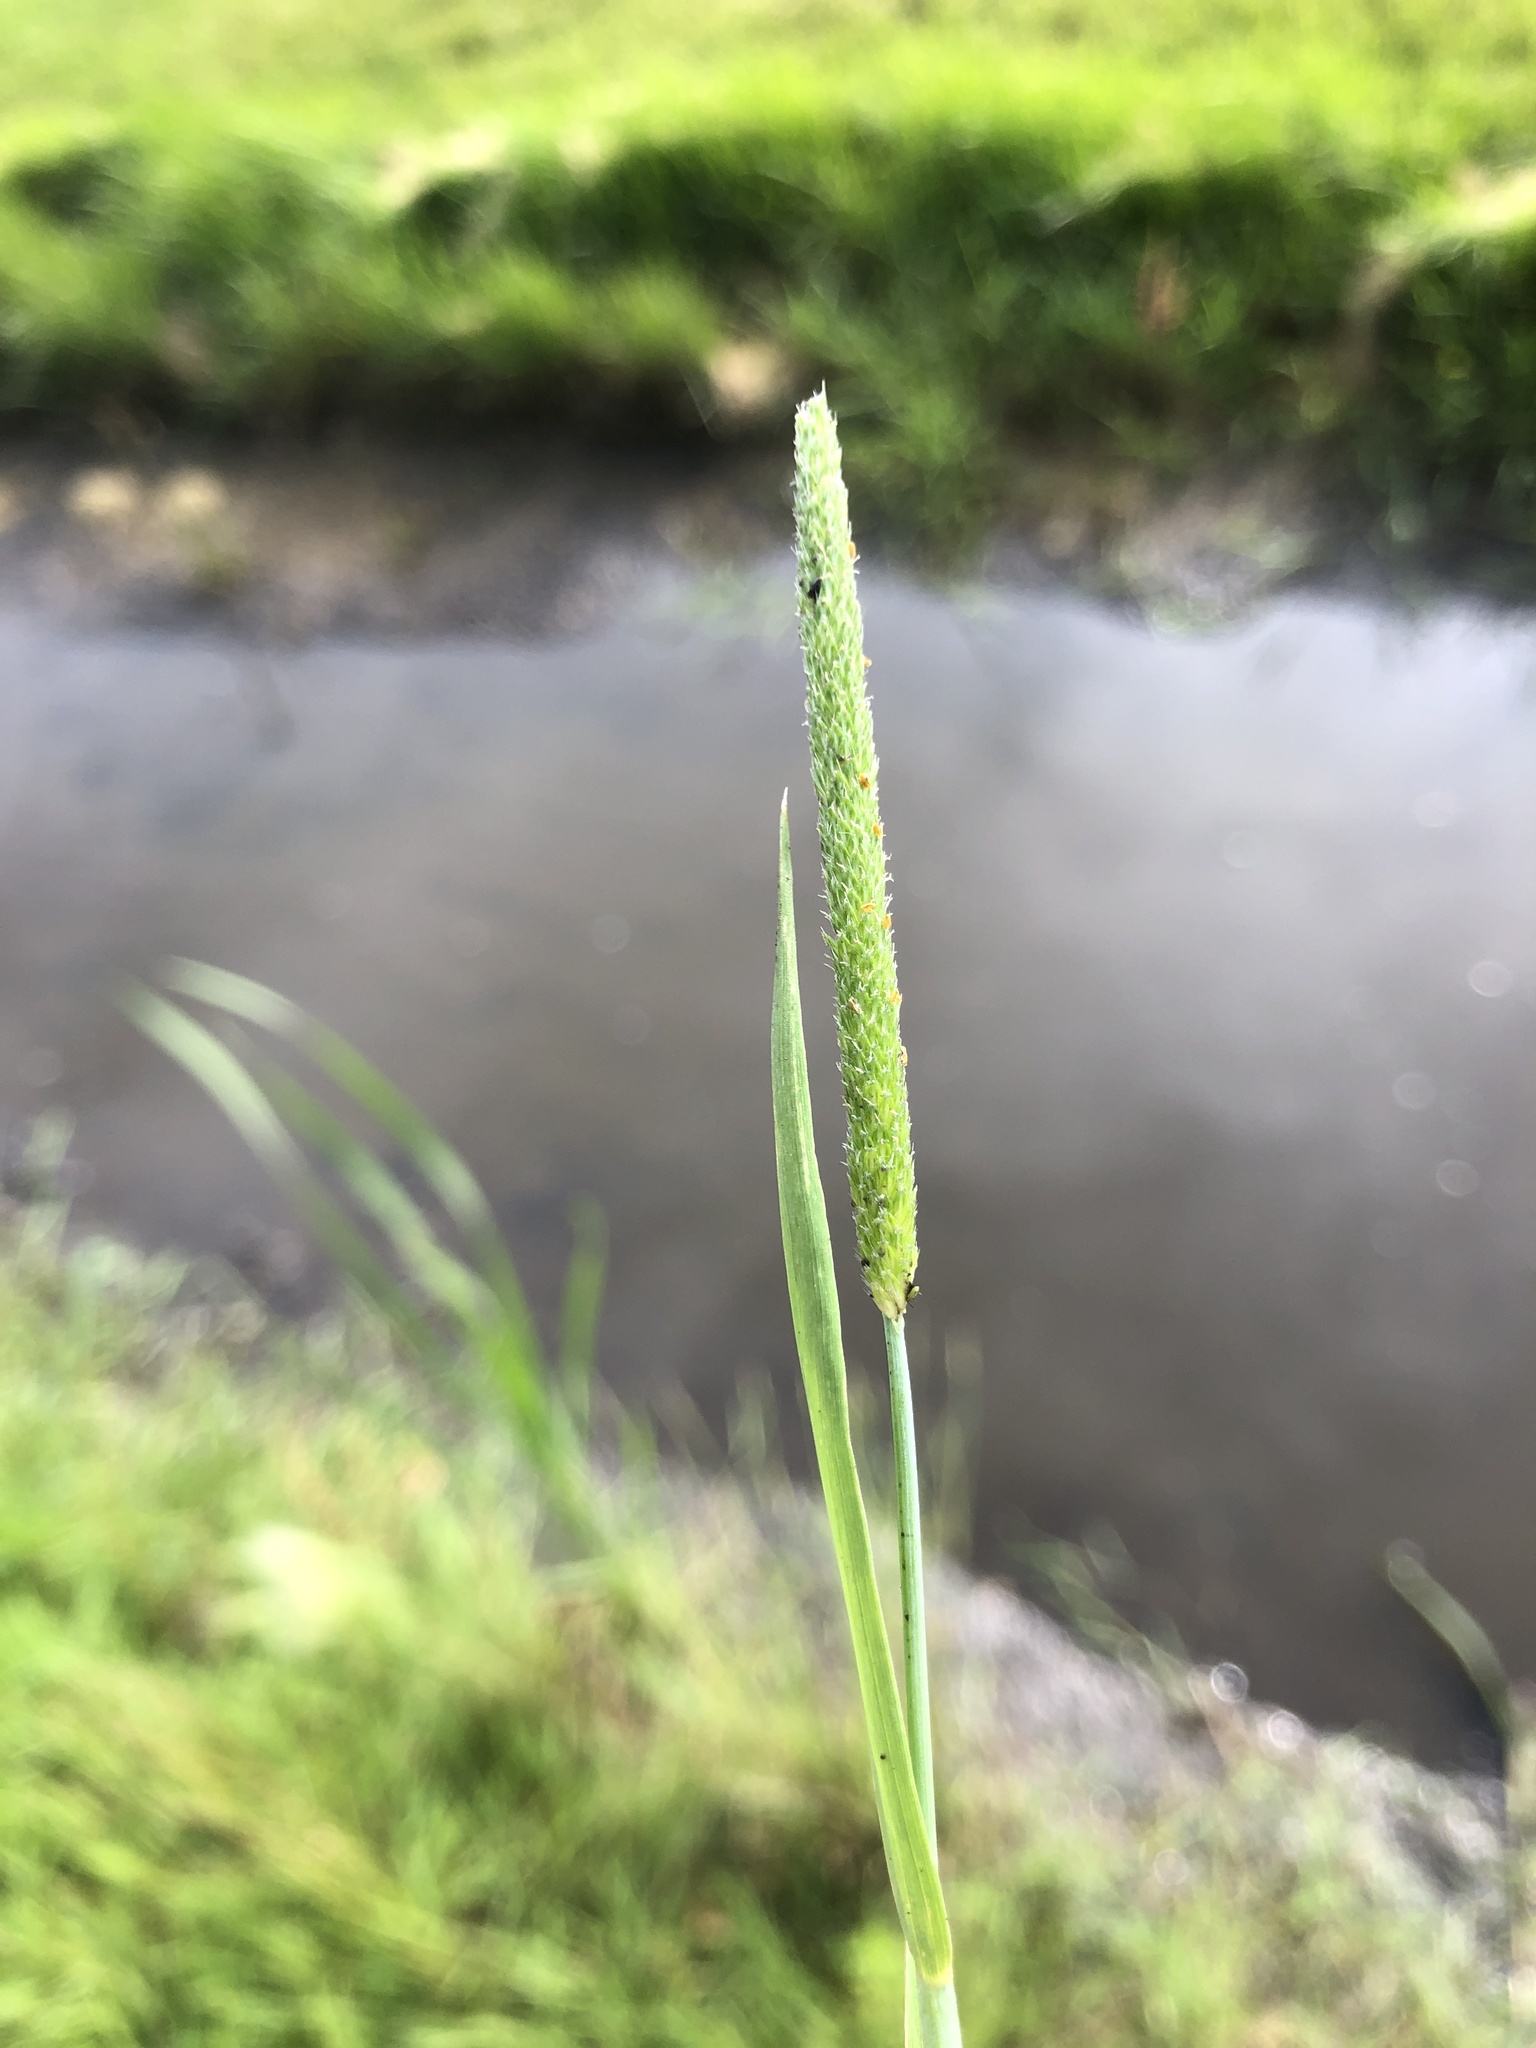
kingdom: Plantae
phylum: Tracheophyta
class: Liliopsida
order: Poales
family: Poaceae
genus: Alopecurus
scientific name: Alopecurus aequalis
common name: Orange foxtail
